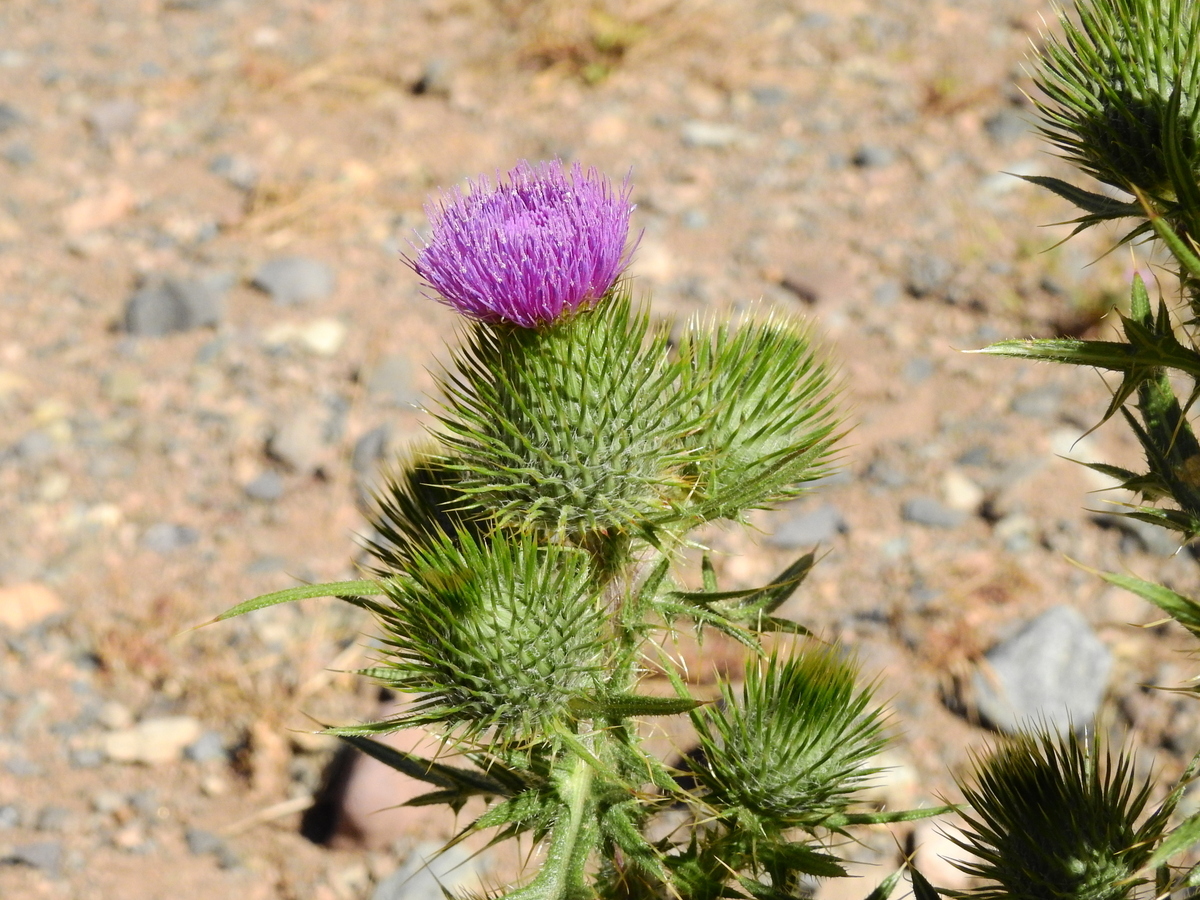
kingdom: Plantae
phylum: Tracheophyta
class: Magnoliopsida
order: Asterales
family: Asteraceae
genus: Cirsium
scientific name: Cirsium vulgare
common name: Bull thistle
